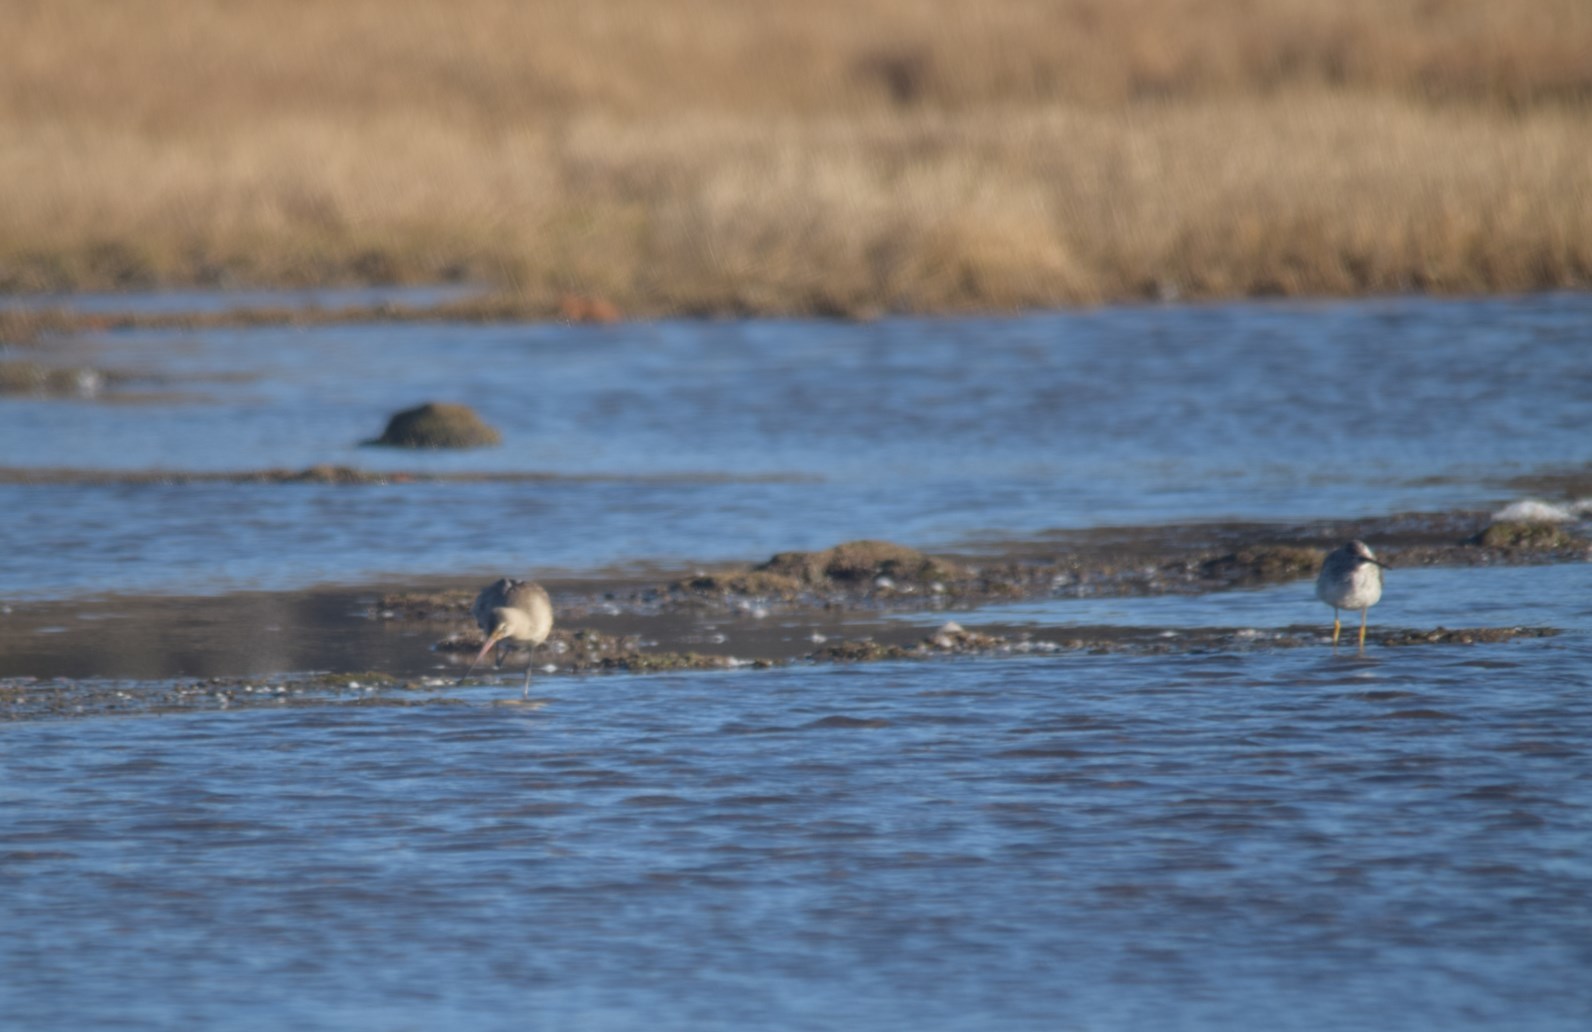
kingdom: Animalia
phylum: Chordata
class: Aves
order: Charadriiformes
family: Scolopacidae
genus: Limosa
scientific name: Limosa haemastica
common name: Hudsonian godwit
